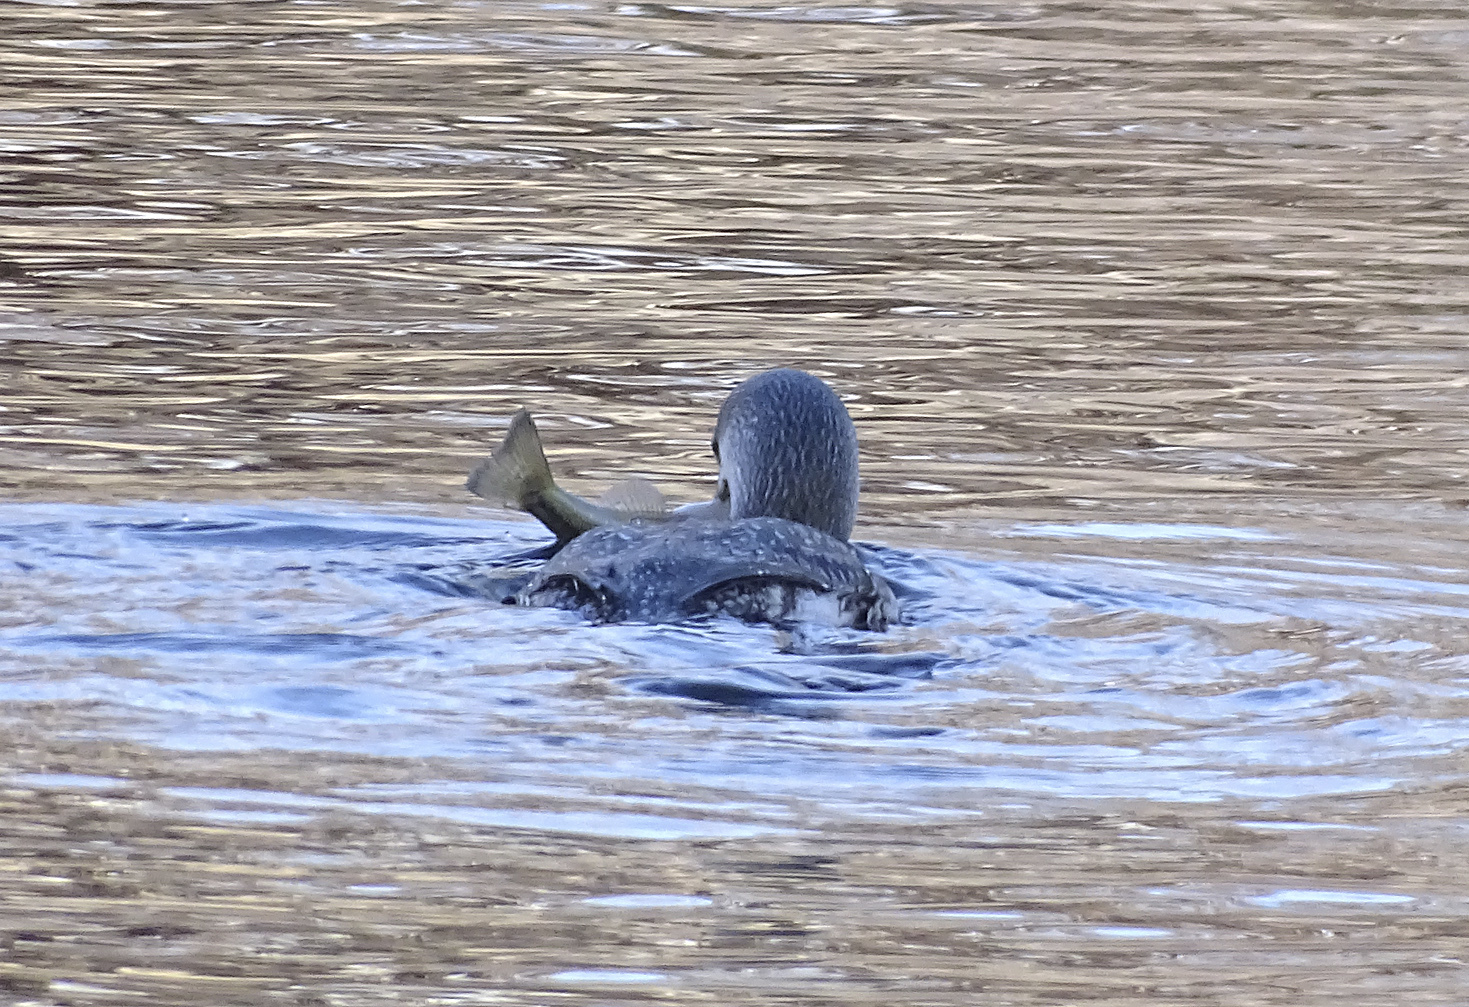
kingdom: Animalia
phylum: Chordata
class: Aves
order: Gaviiformes
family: Gaviidae
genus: Gavia
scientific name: Gavia stellata
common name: Red-throated loon
